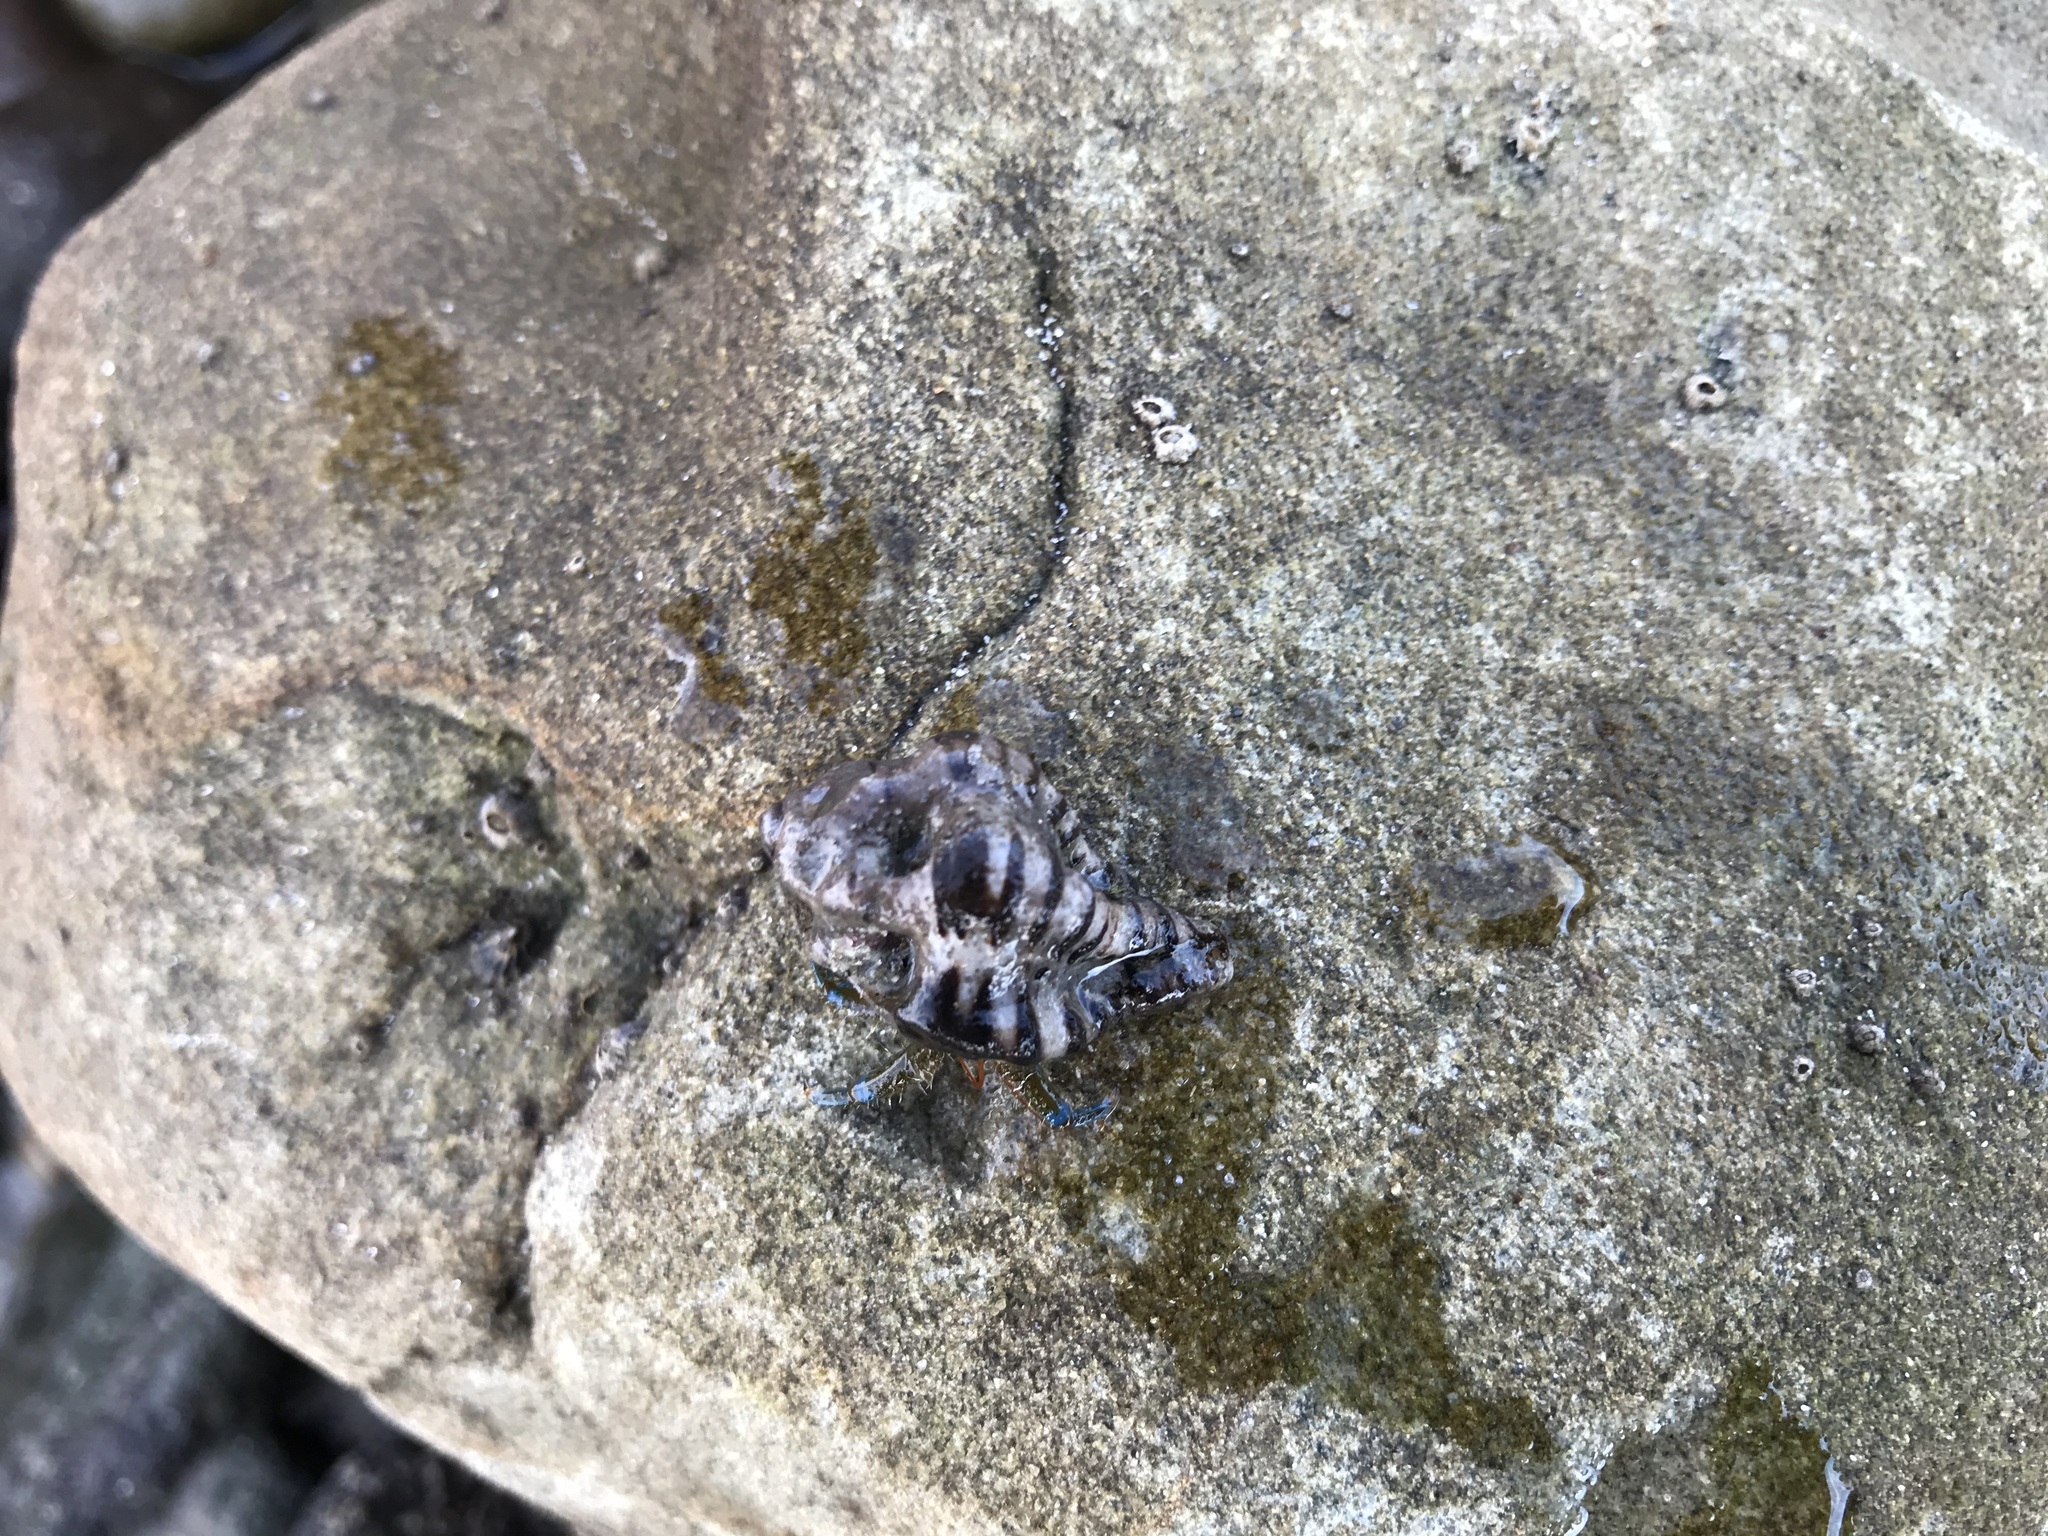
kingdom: Animalia
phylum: Arthropoda
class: Malacostraca
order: Decapoda
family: Paguridae
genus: Pagurus
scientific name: Pagurus samuelis
